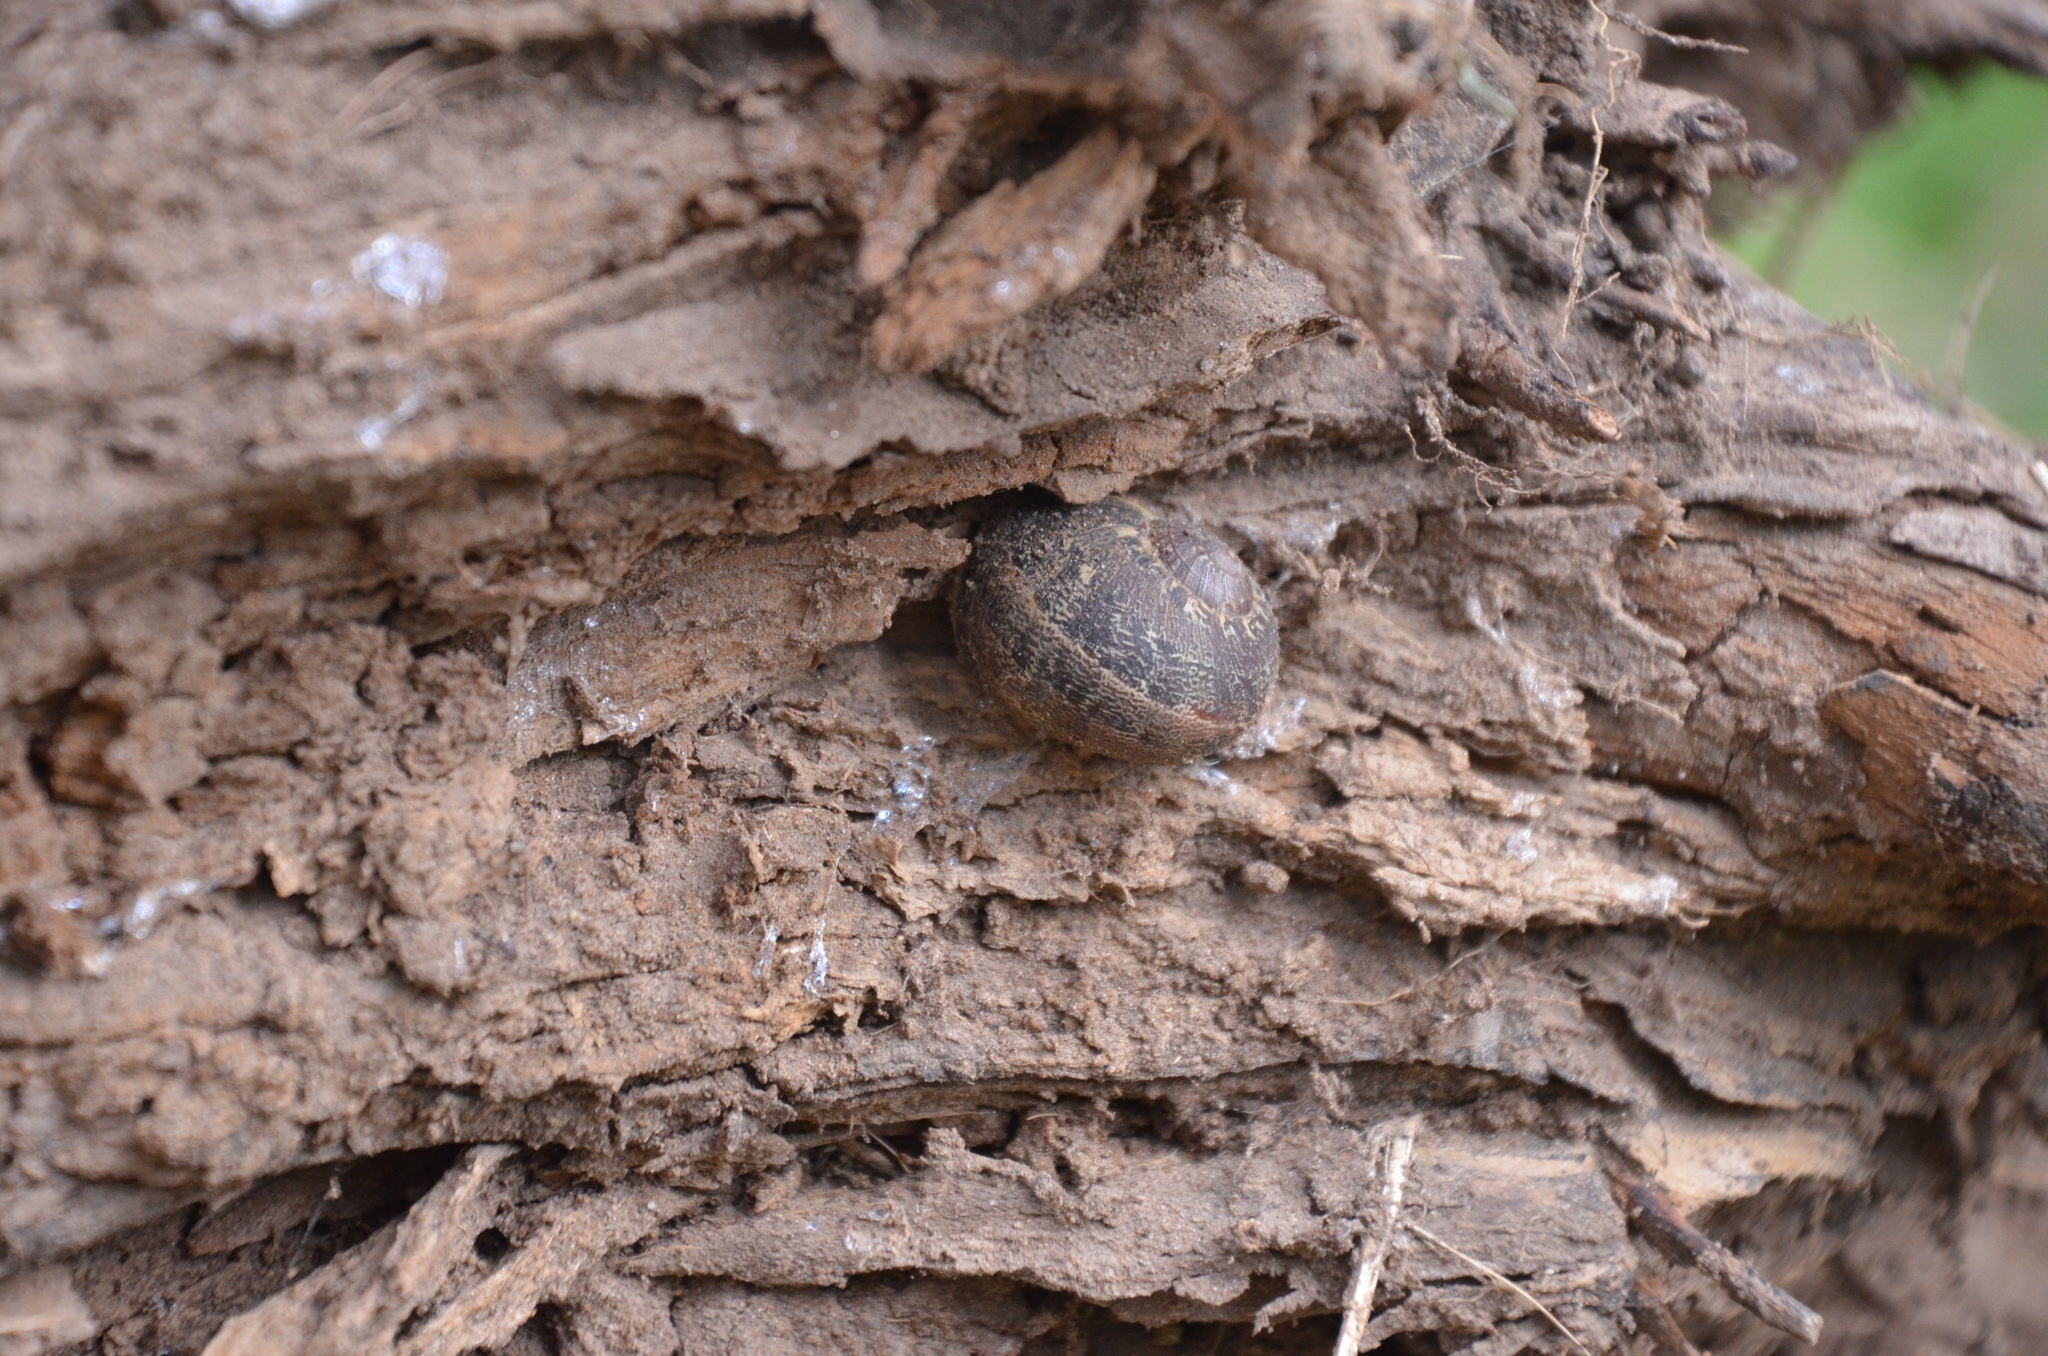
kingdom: Animalia
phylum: Mollusca
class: Gastropoda
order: Stylommatophora
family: Helicidae
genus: Cornu
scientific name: Cornu aspersum
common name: Brown garden snail
